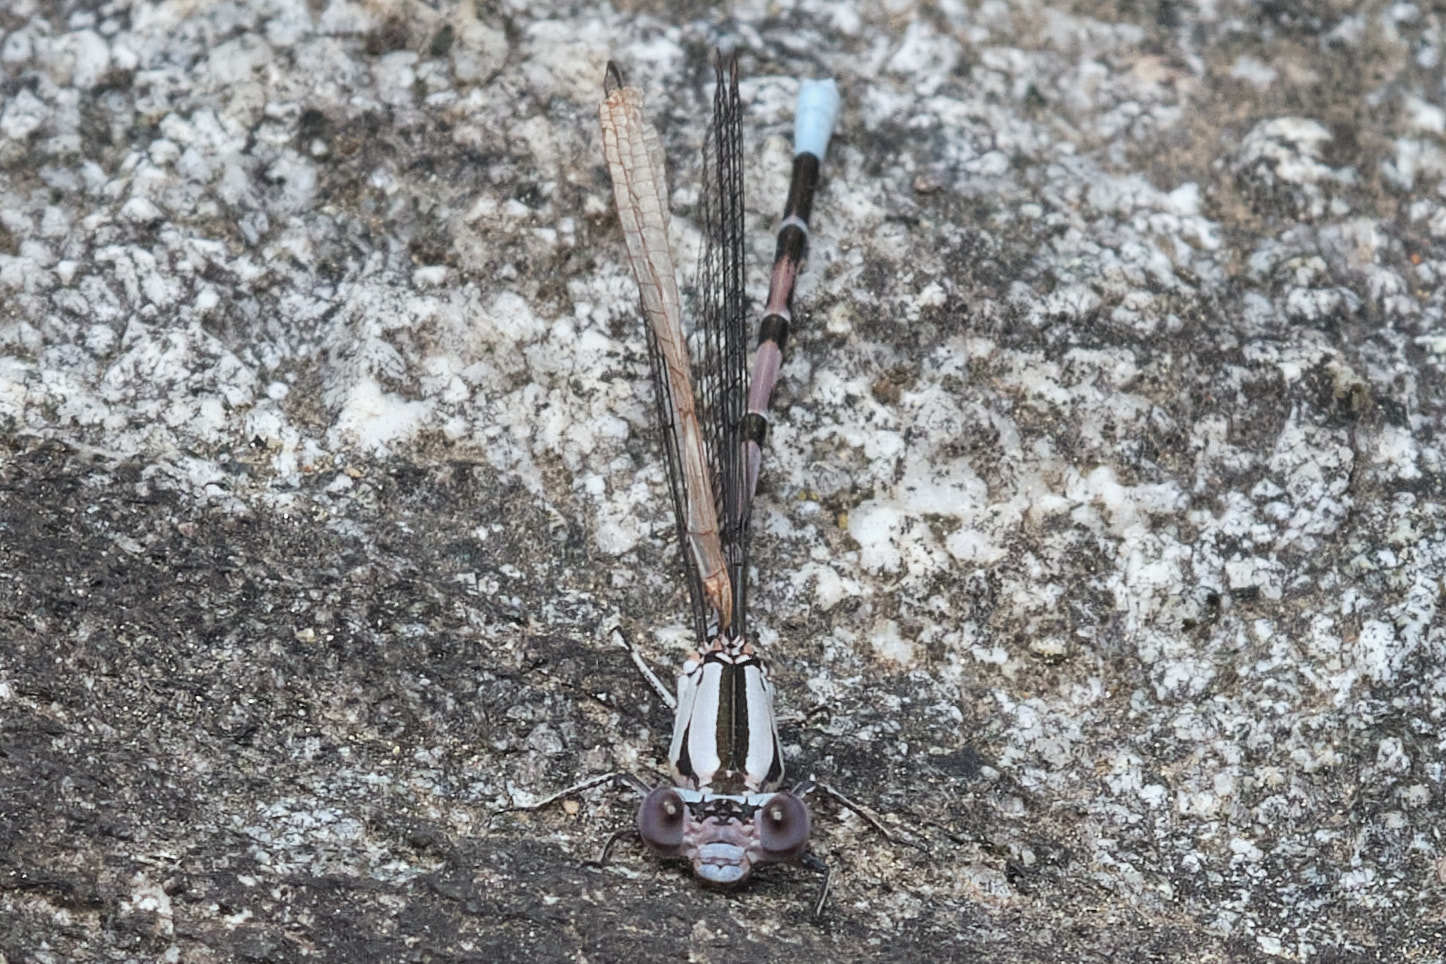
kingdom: Animalia
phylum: Arthropoda
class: Insecta
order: Odonata
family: Coenagrionidae
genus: Argia
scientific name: Argia vivida
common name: Vivid dancer
